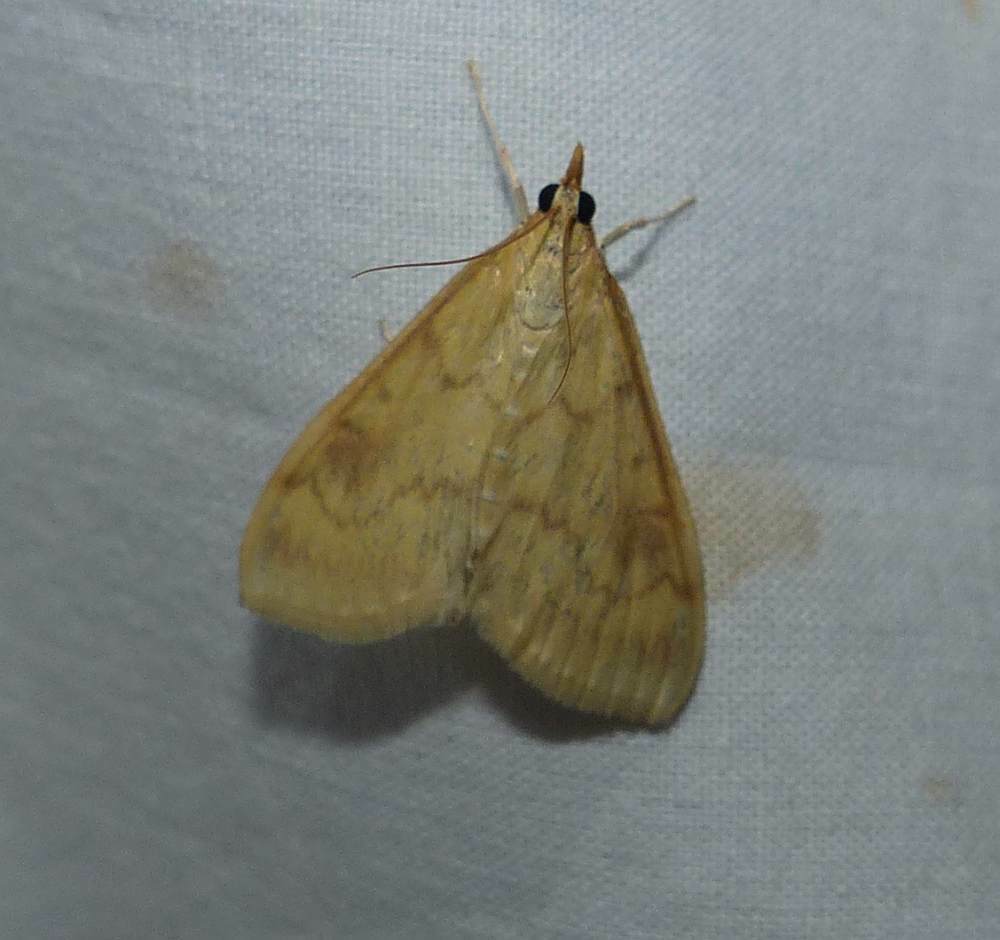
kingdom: Animalia
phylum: Arthropoda
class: Insecta
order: Lepidoptera
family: Crambidae
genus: Ostrinia
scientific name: Ostrinia nubilalis
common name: European corn borer
